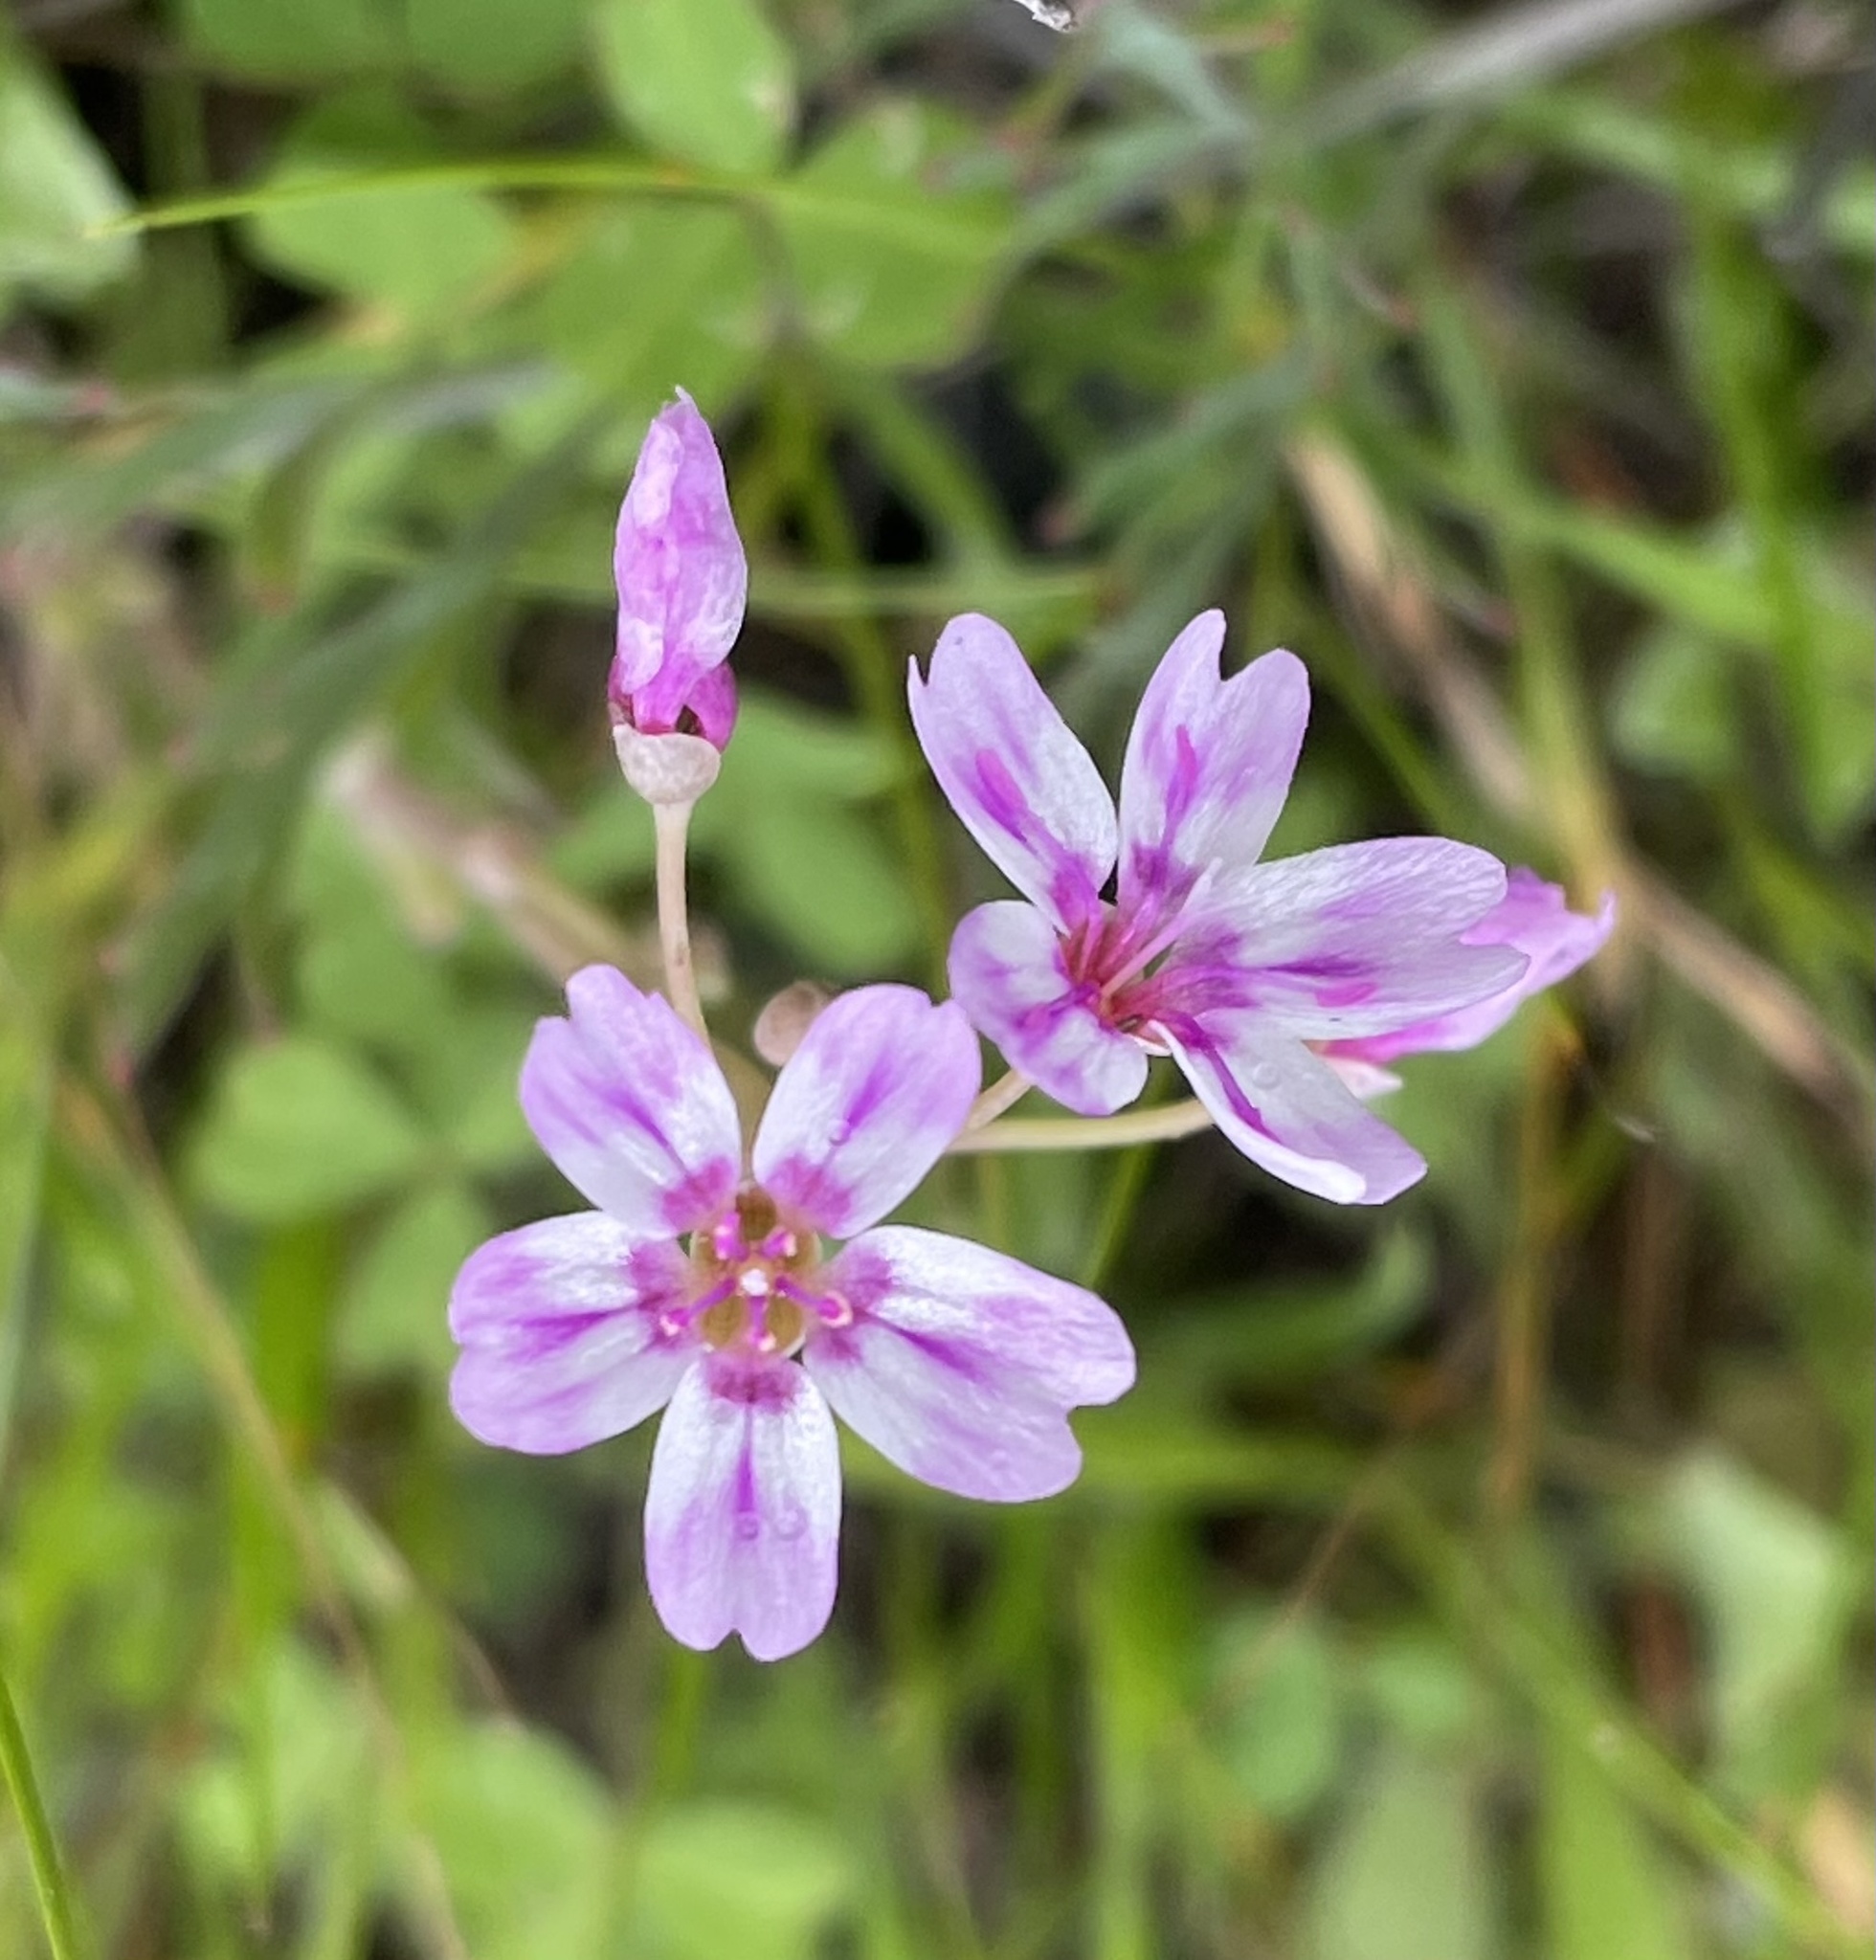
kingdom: Plantae
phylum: Tracheophyta
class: Magnoliopsida
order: Caryophyllales
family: Montiaceae
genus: Claytonia
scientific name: Claytonia gypsophiloides
